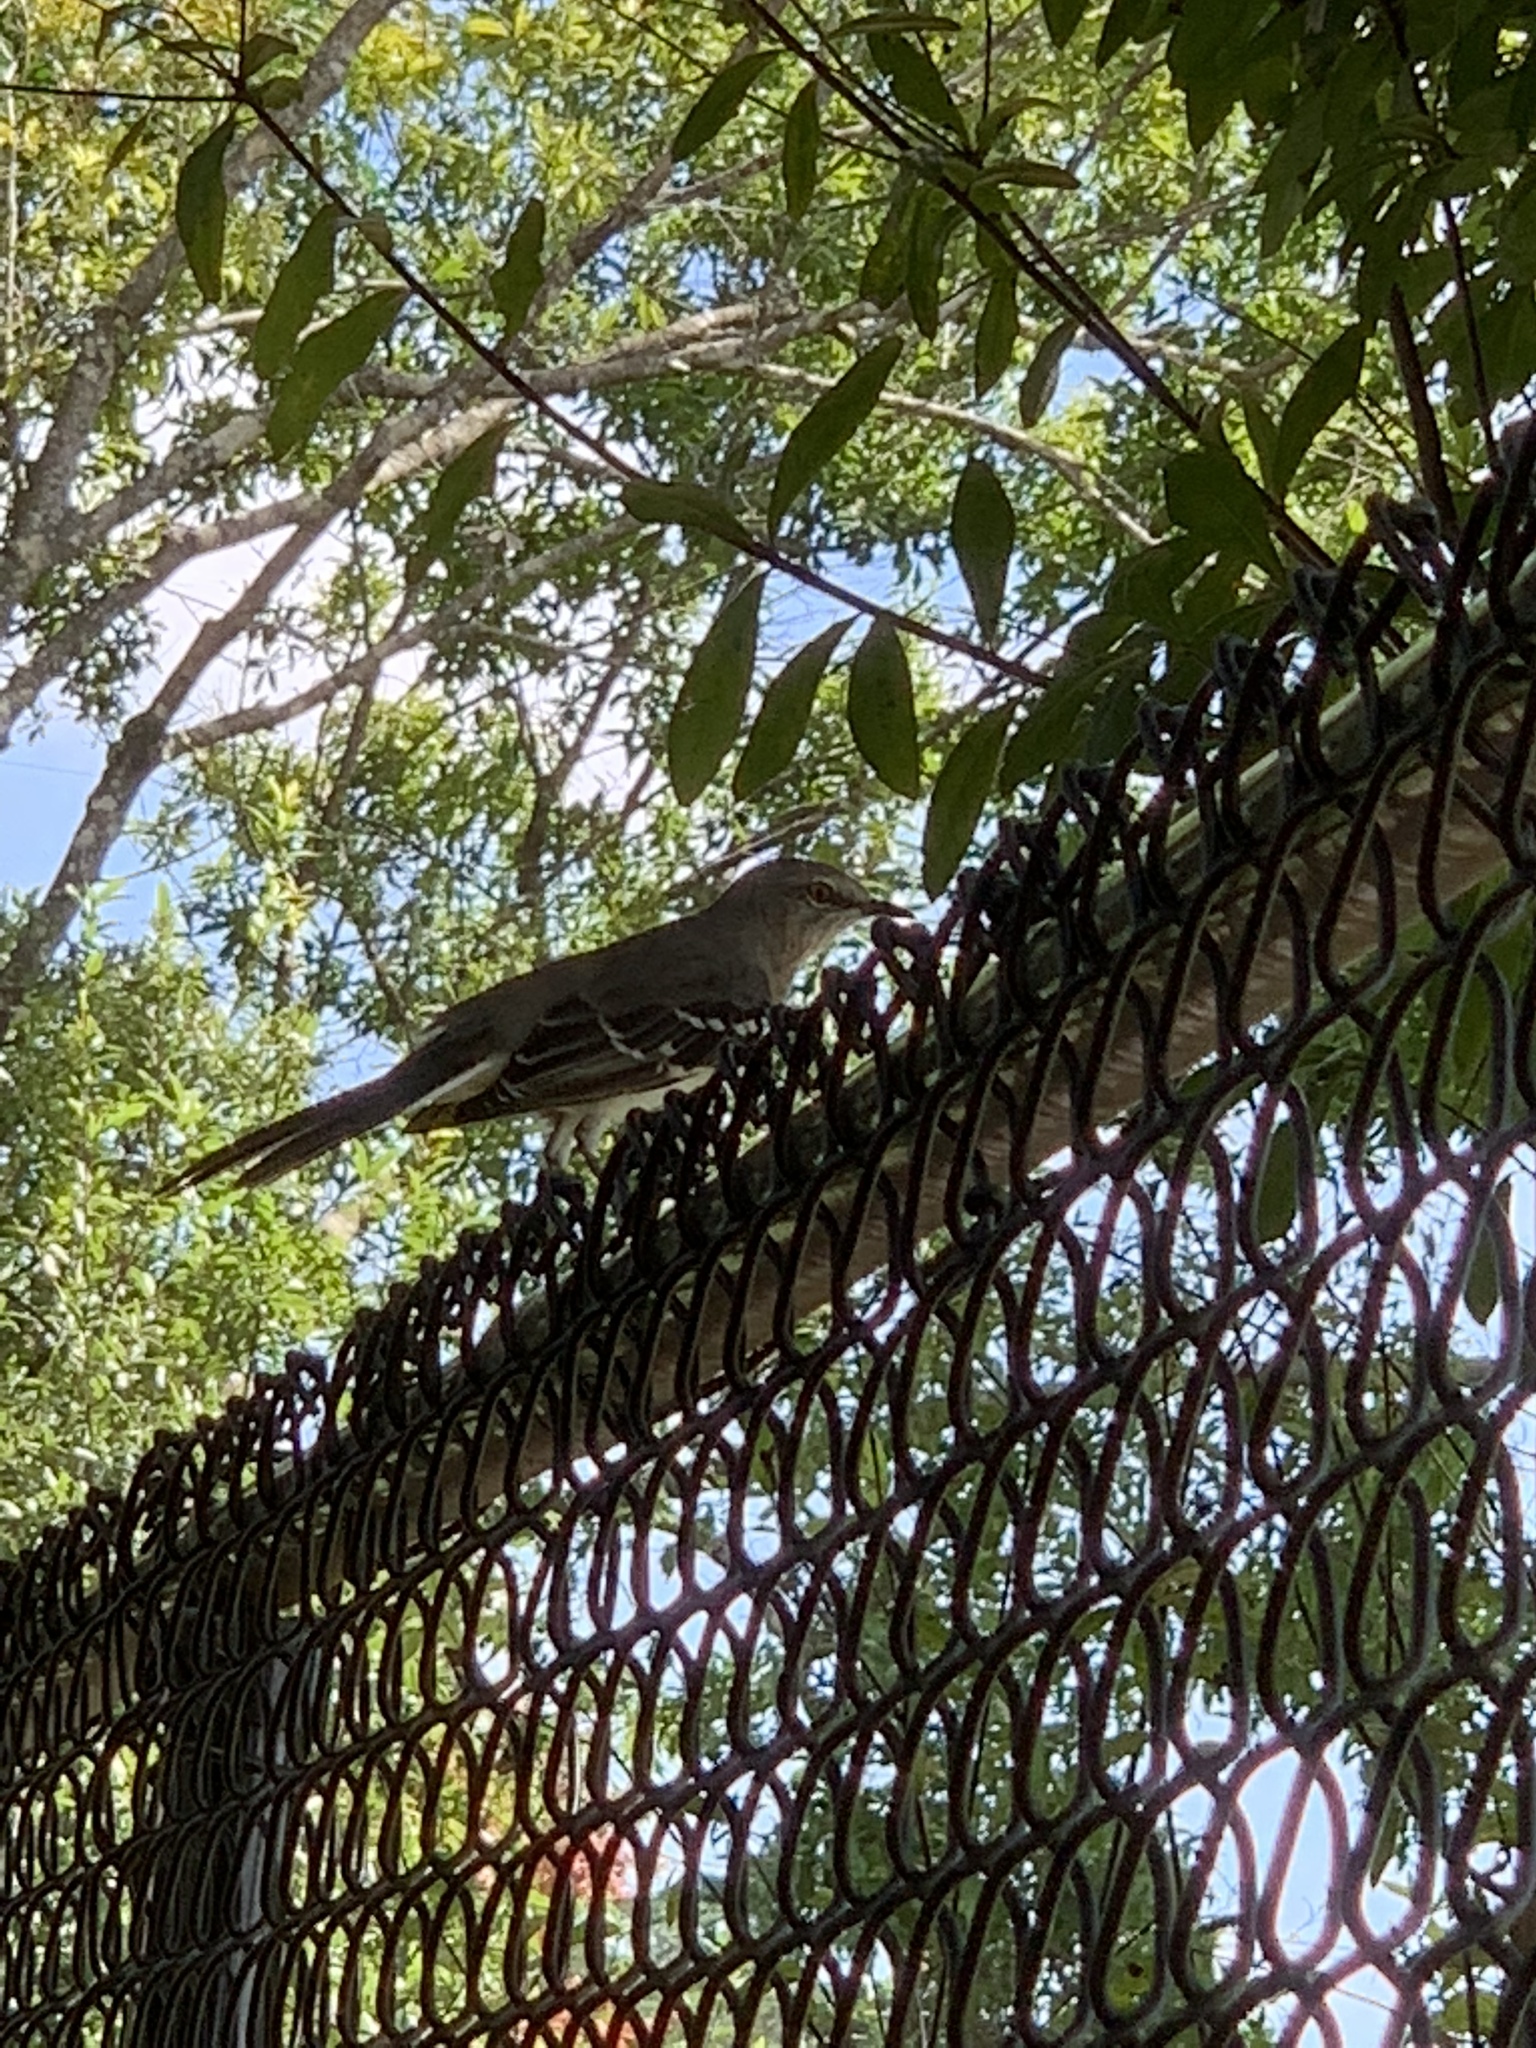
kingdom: Animalia
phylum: Chordata
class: Aves
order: Passeriformes
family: Mimidae
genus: Mimus
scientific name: Mimus polyglottos
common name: Northern mockingbird
